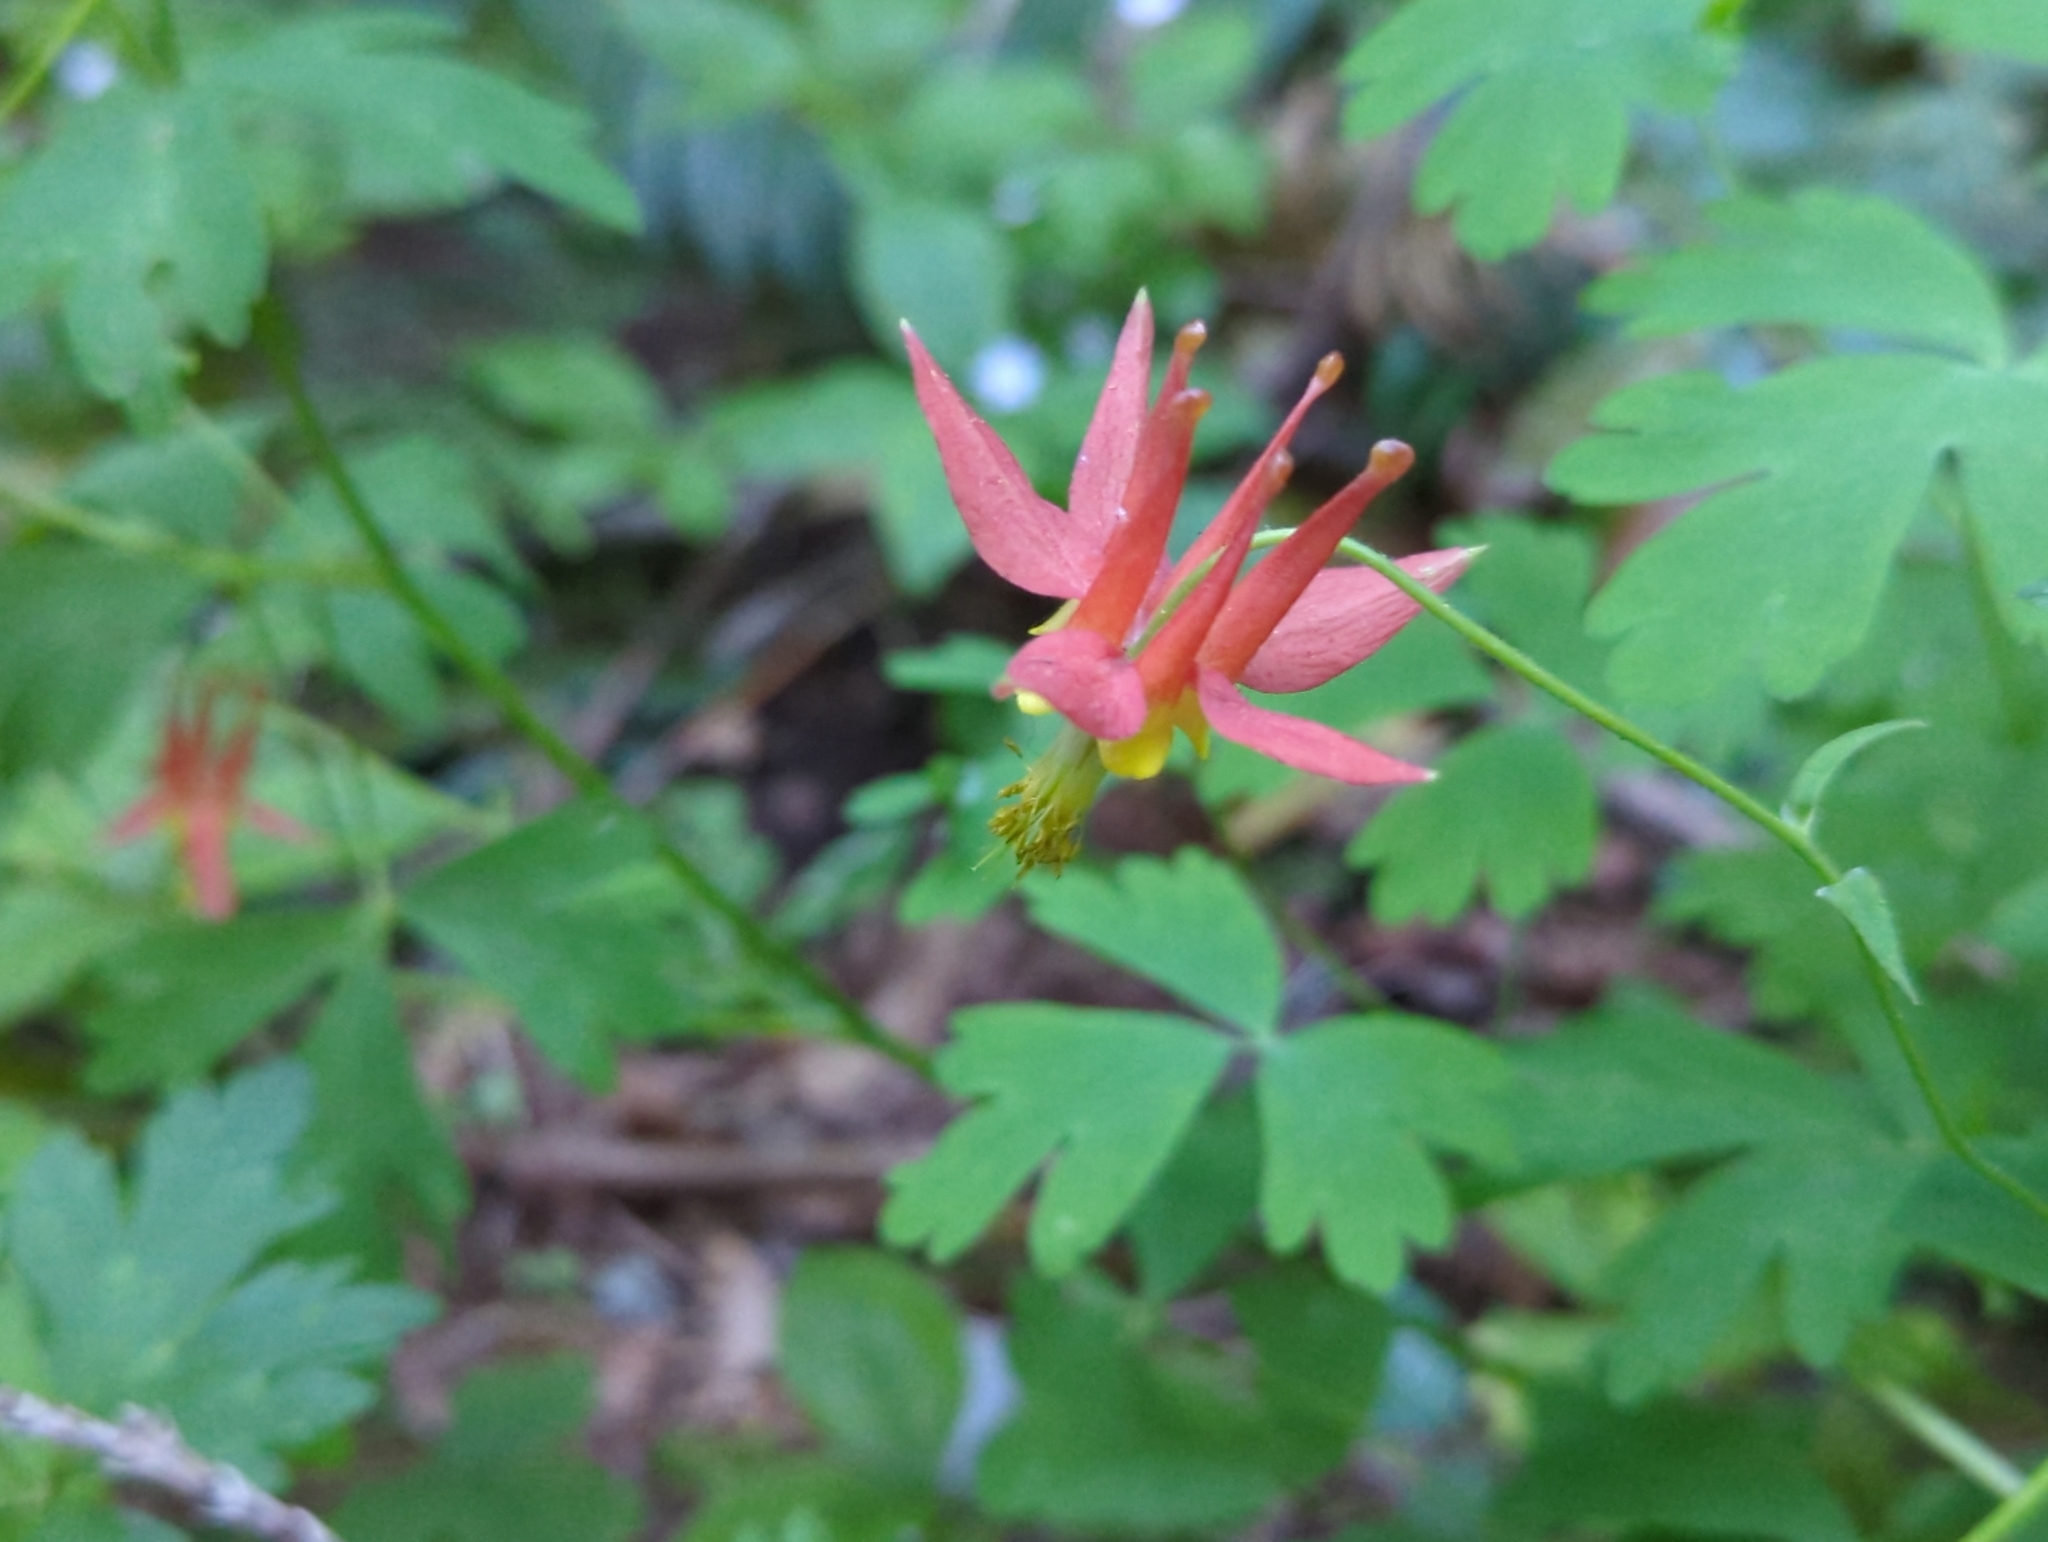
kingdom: Plantae
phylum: Tracheophyta
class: Magnoliopsida
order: Ranunculales
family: Ranunculaceae
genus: Aquilegia
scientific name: Aquilegia formosa
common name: Sitka columbine
